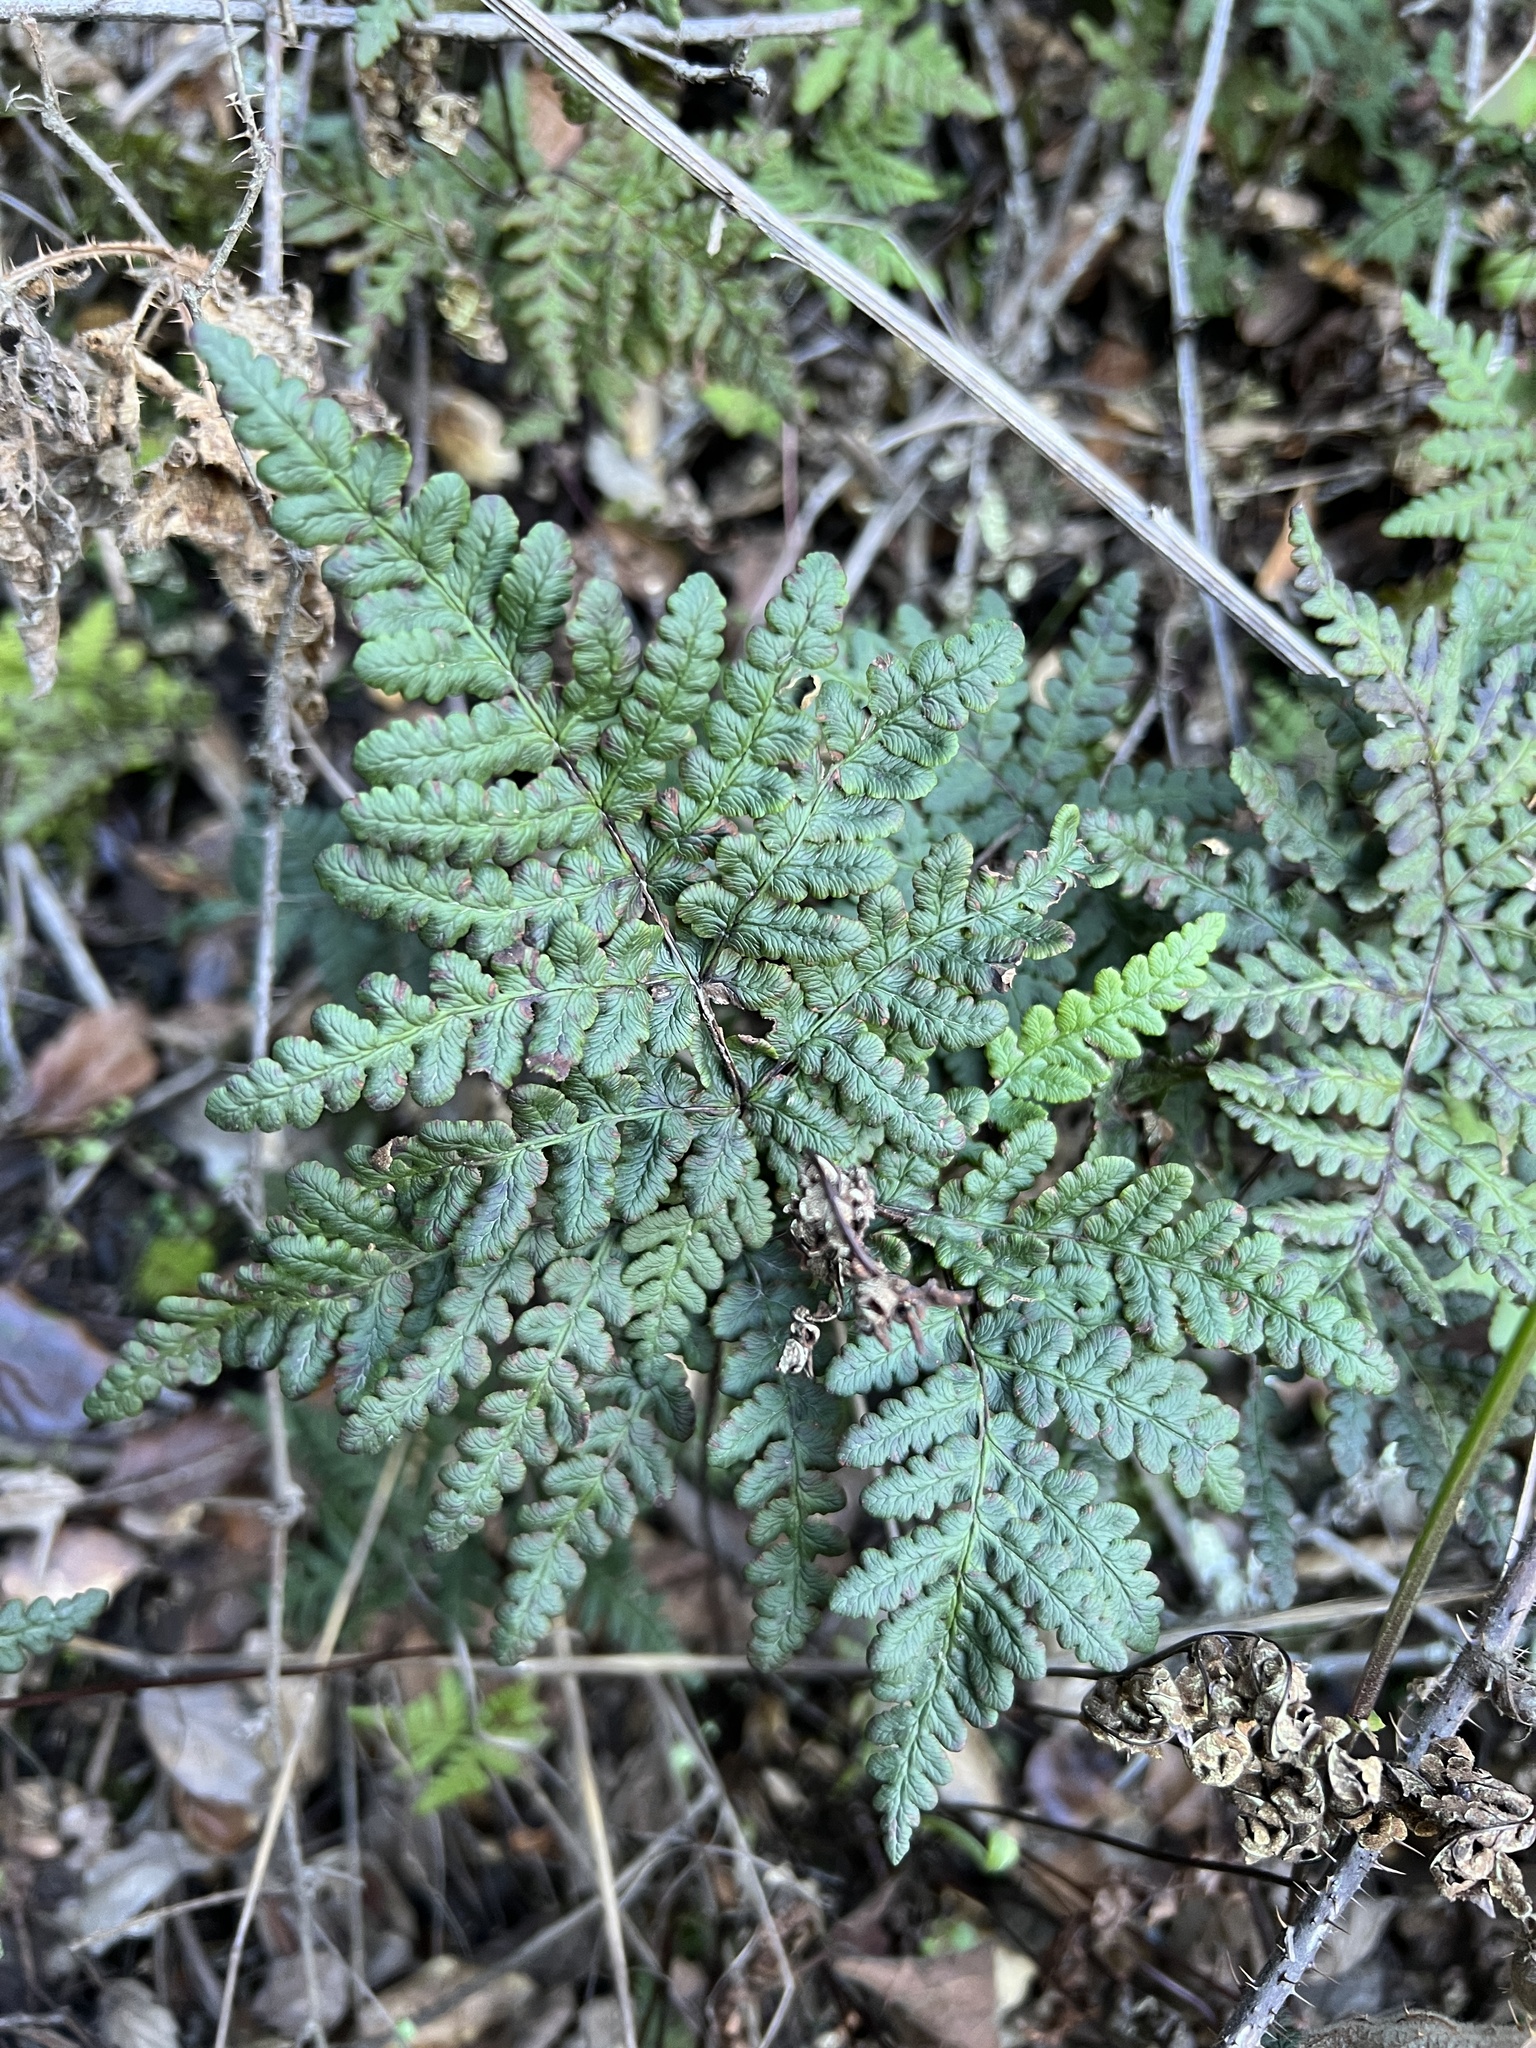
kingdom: Plantae
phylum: Tracheophyta
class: Polypodiopsida
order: Polypodiales
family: Pteridaceae
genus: Pentagramma
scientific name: Pentagramma triangularis
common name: Gold fern
